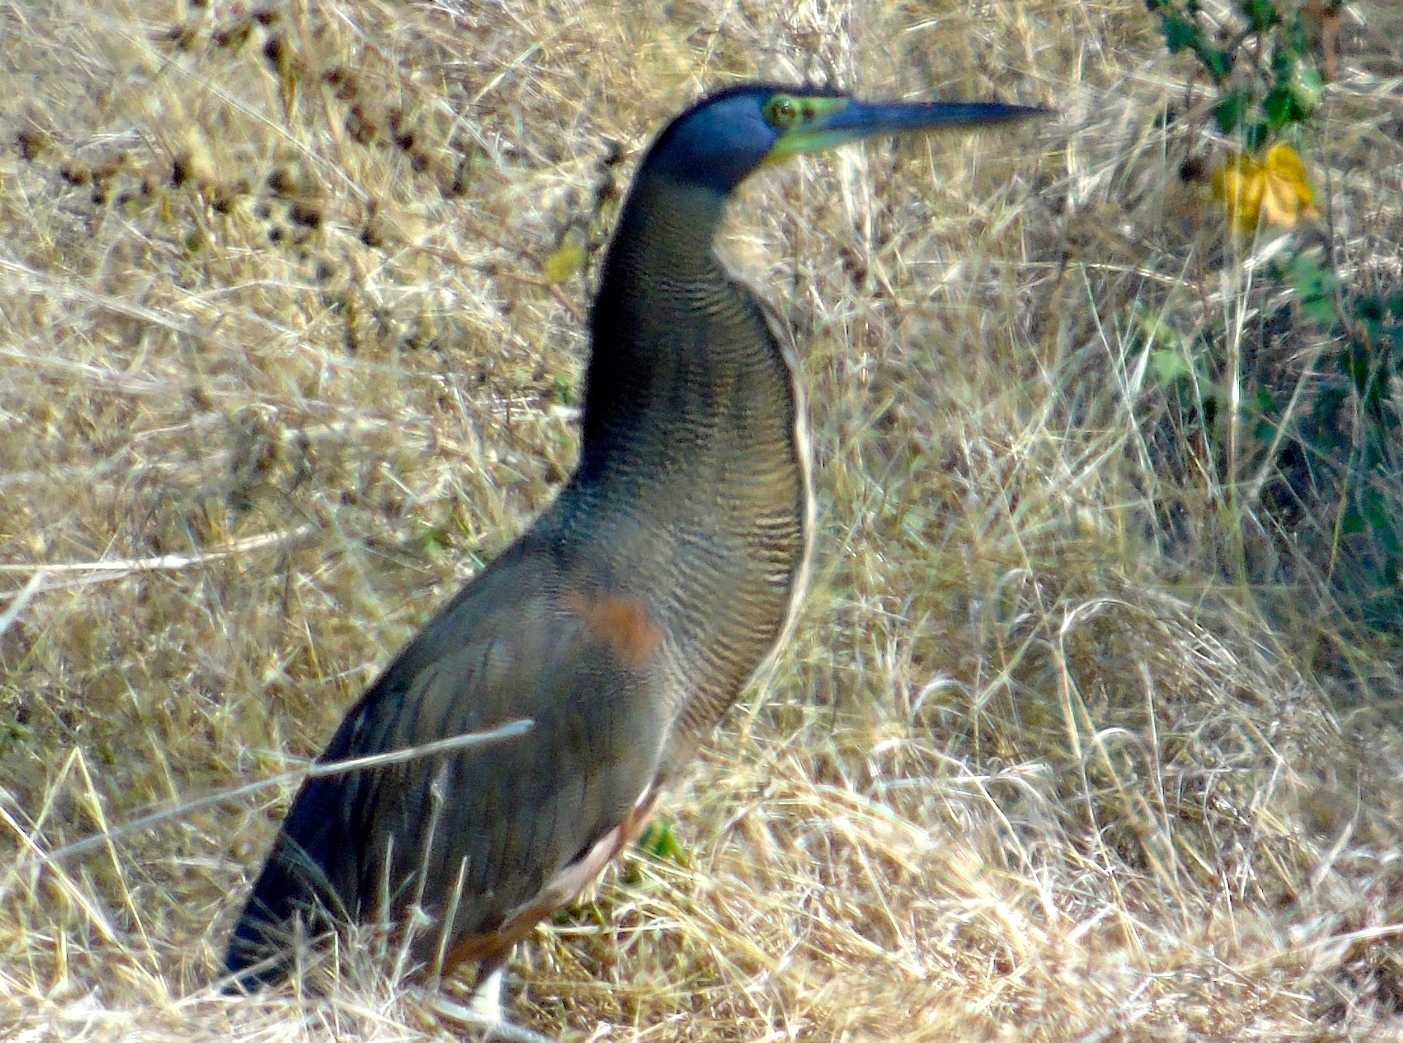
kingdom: Animalia
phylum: Chordata
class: Aves
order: Pelecaniformes
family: Ardeidae
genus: Tigrisoma
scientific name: Tigrisoma mexicanum
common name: Bare-throated tiger-heron
